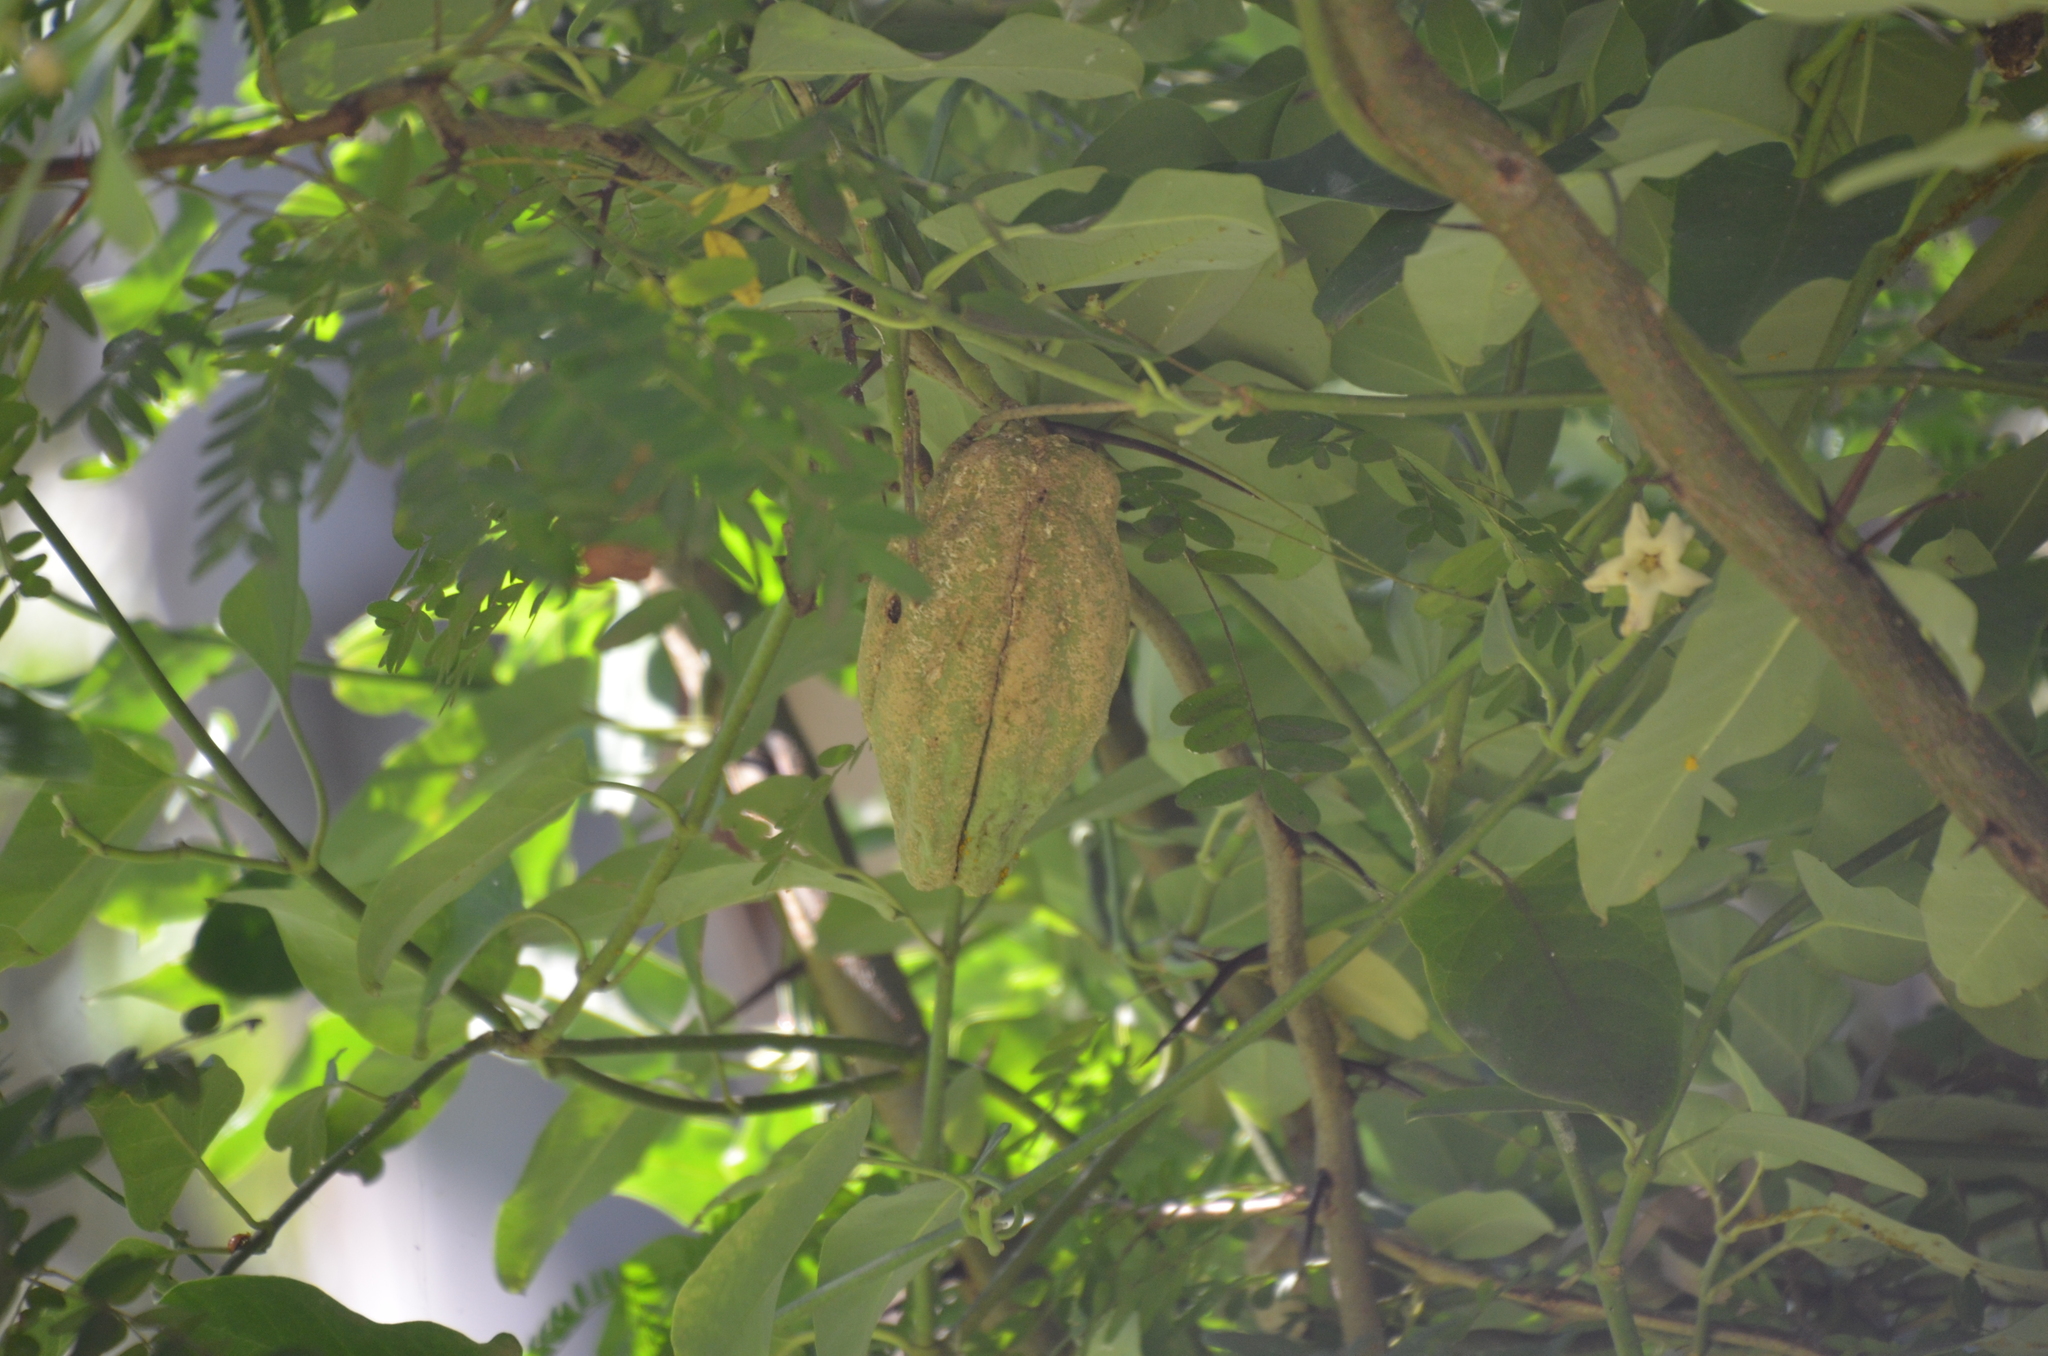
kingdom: Plantae
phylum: Tracheophyta
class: Magnoliopsida
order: Gentianales
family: Apocynaceae
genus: Araujia
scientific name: Araujia sericifera
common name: White bladderflower
